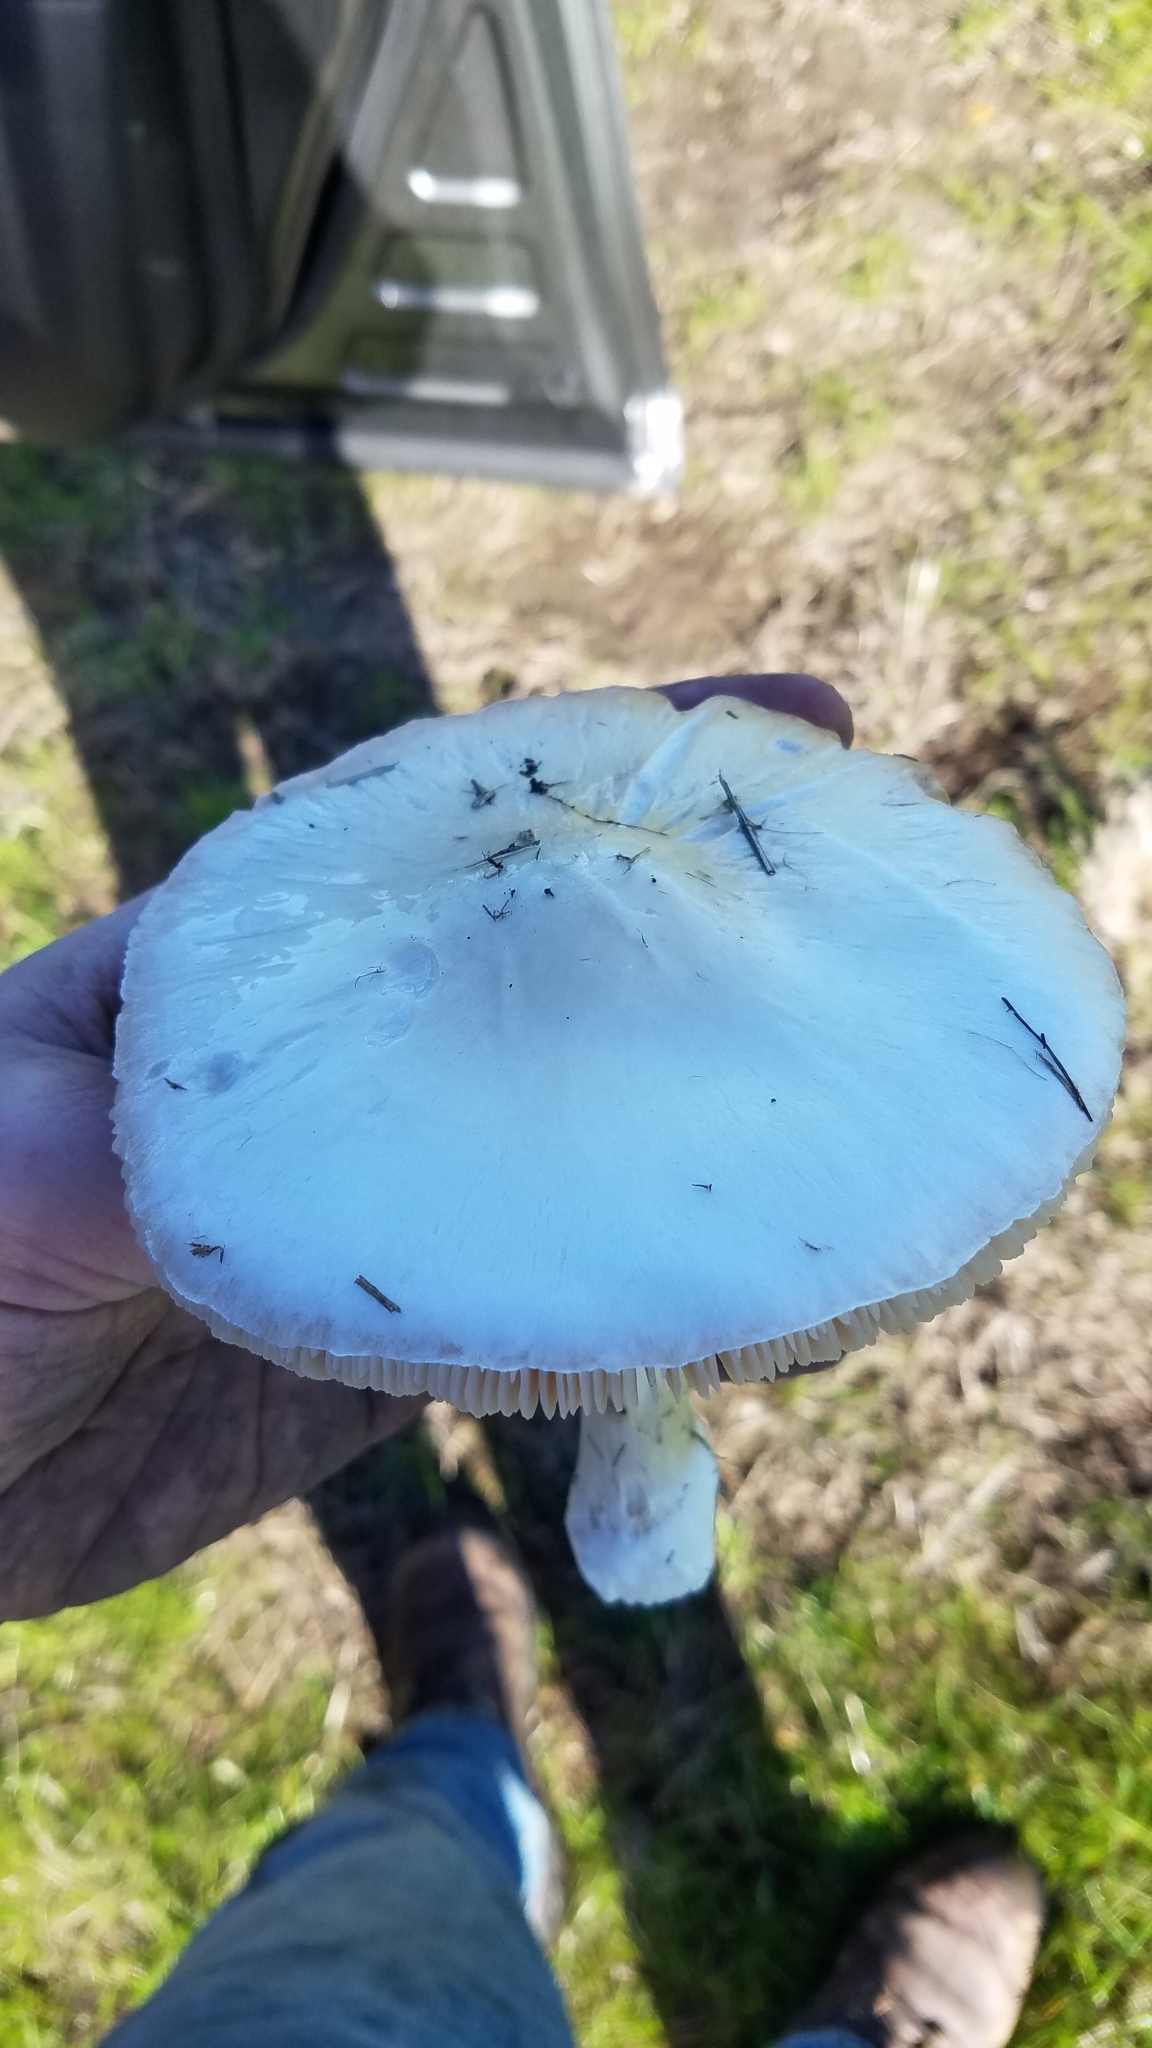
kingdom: Fungi
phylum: Basidiomycota
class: Agaricomycetes
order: Agaricales
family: Pluteaceae
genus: Volvopluteus
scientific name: Volvopluteus gloiocephalus
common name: Stubble rosegill
